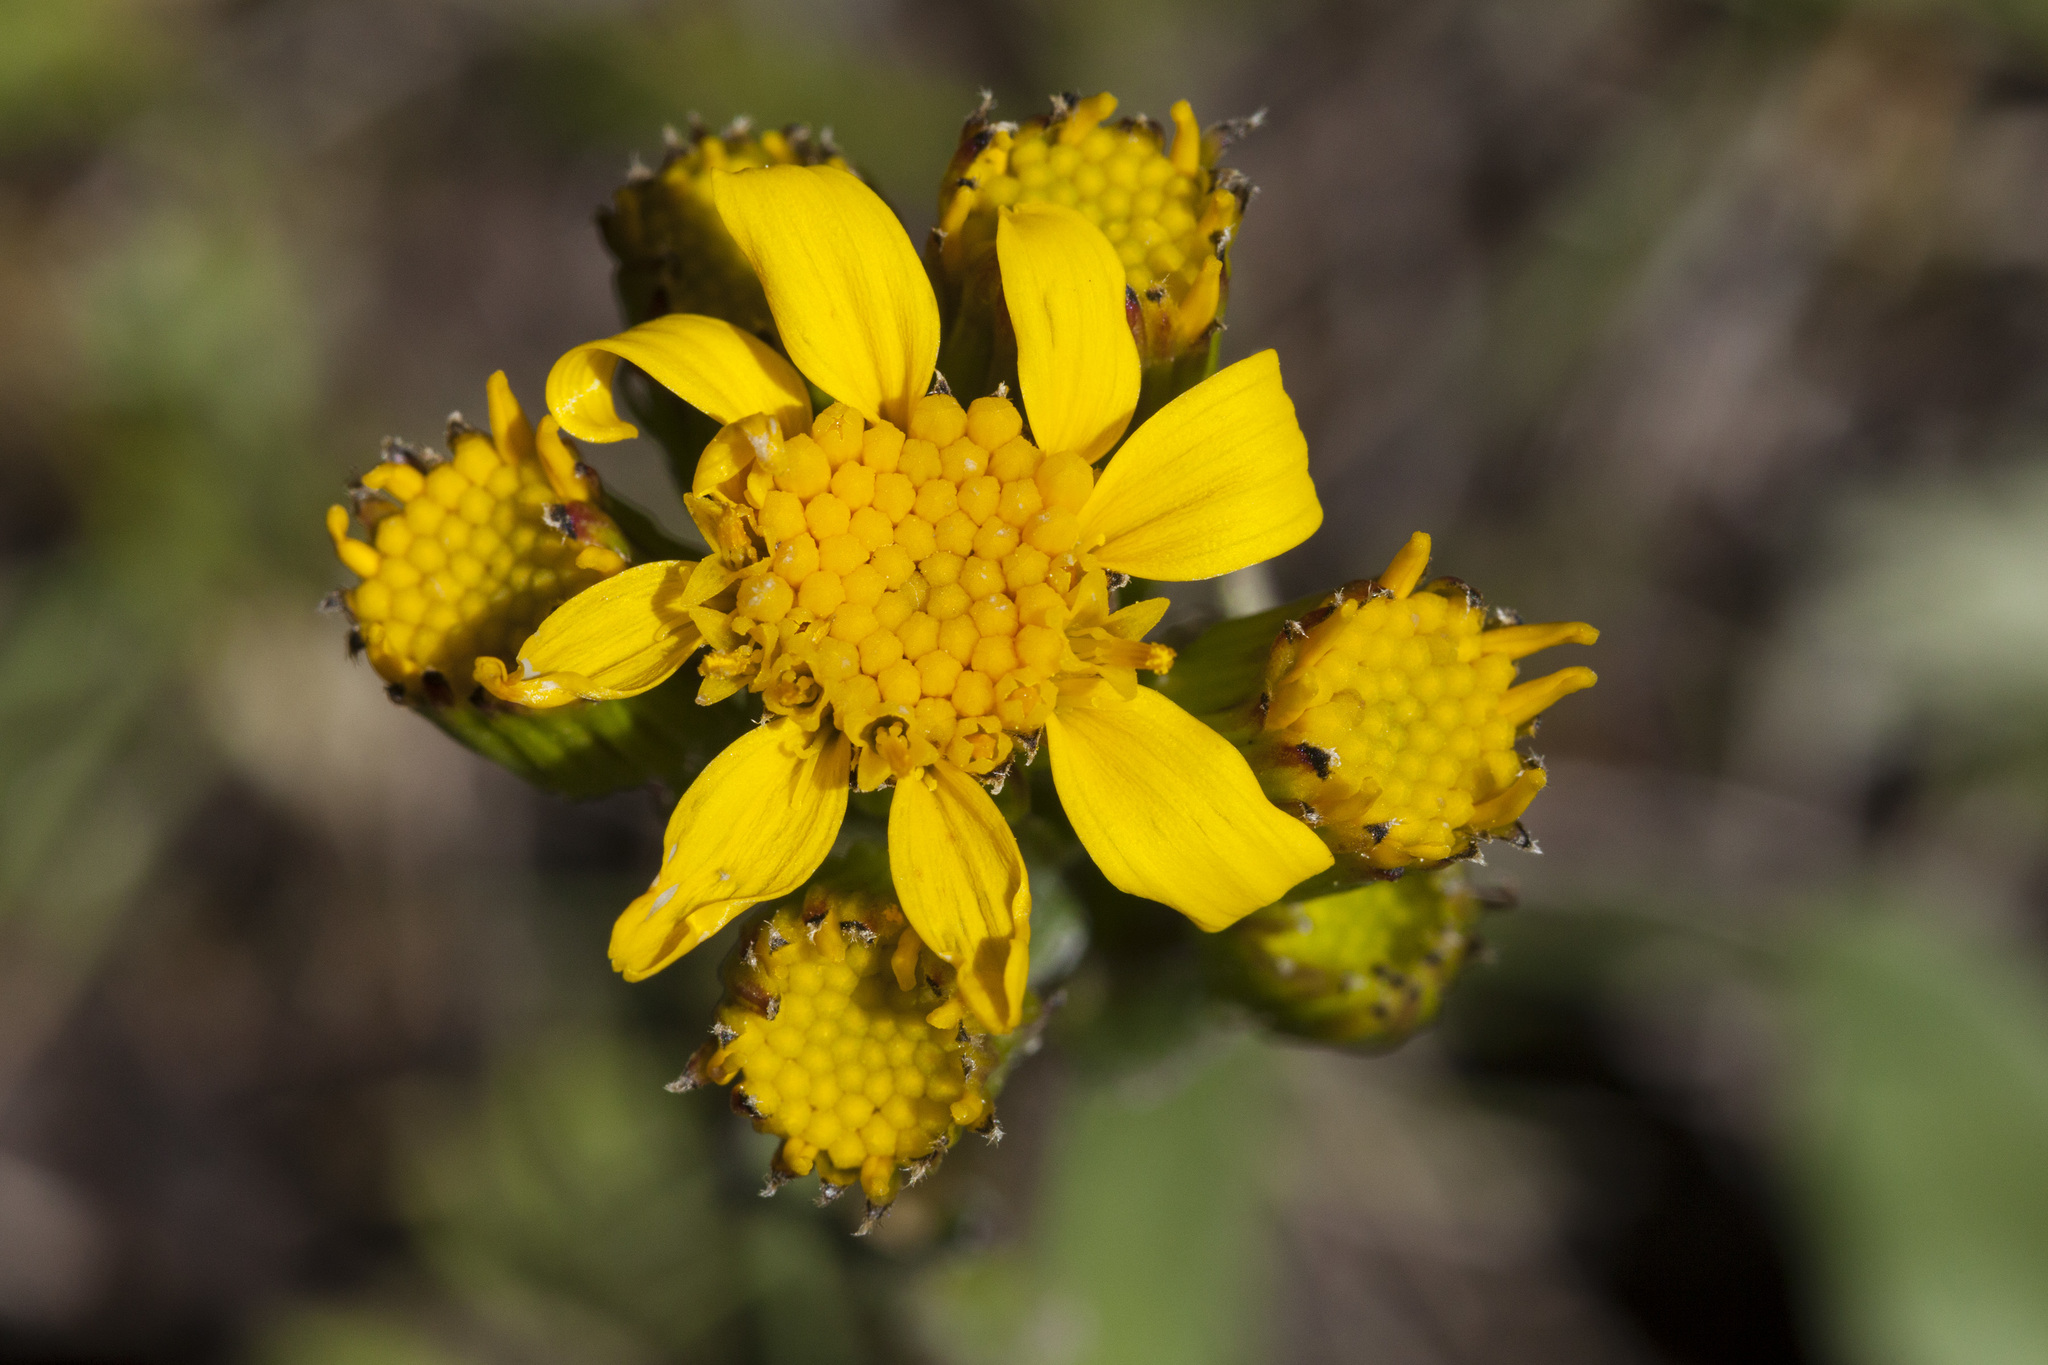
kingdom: Plantae
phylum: Tracheophyta
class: Magnoliopsida
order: Asterales
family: Asteraceae
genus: Senecio
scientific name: Senecio integerrimus
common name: Gaugeplant
